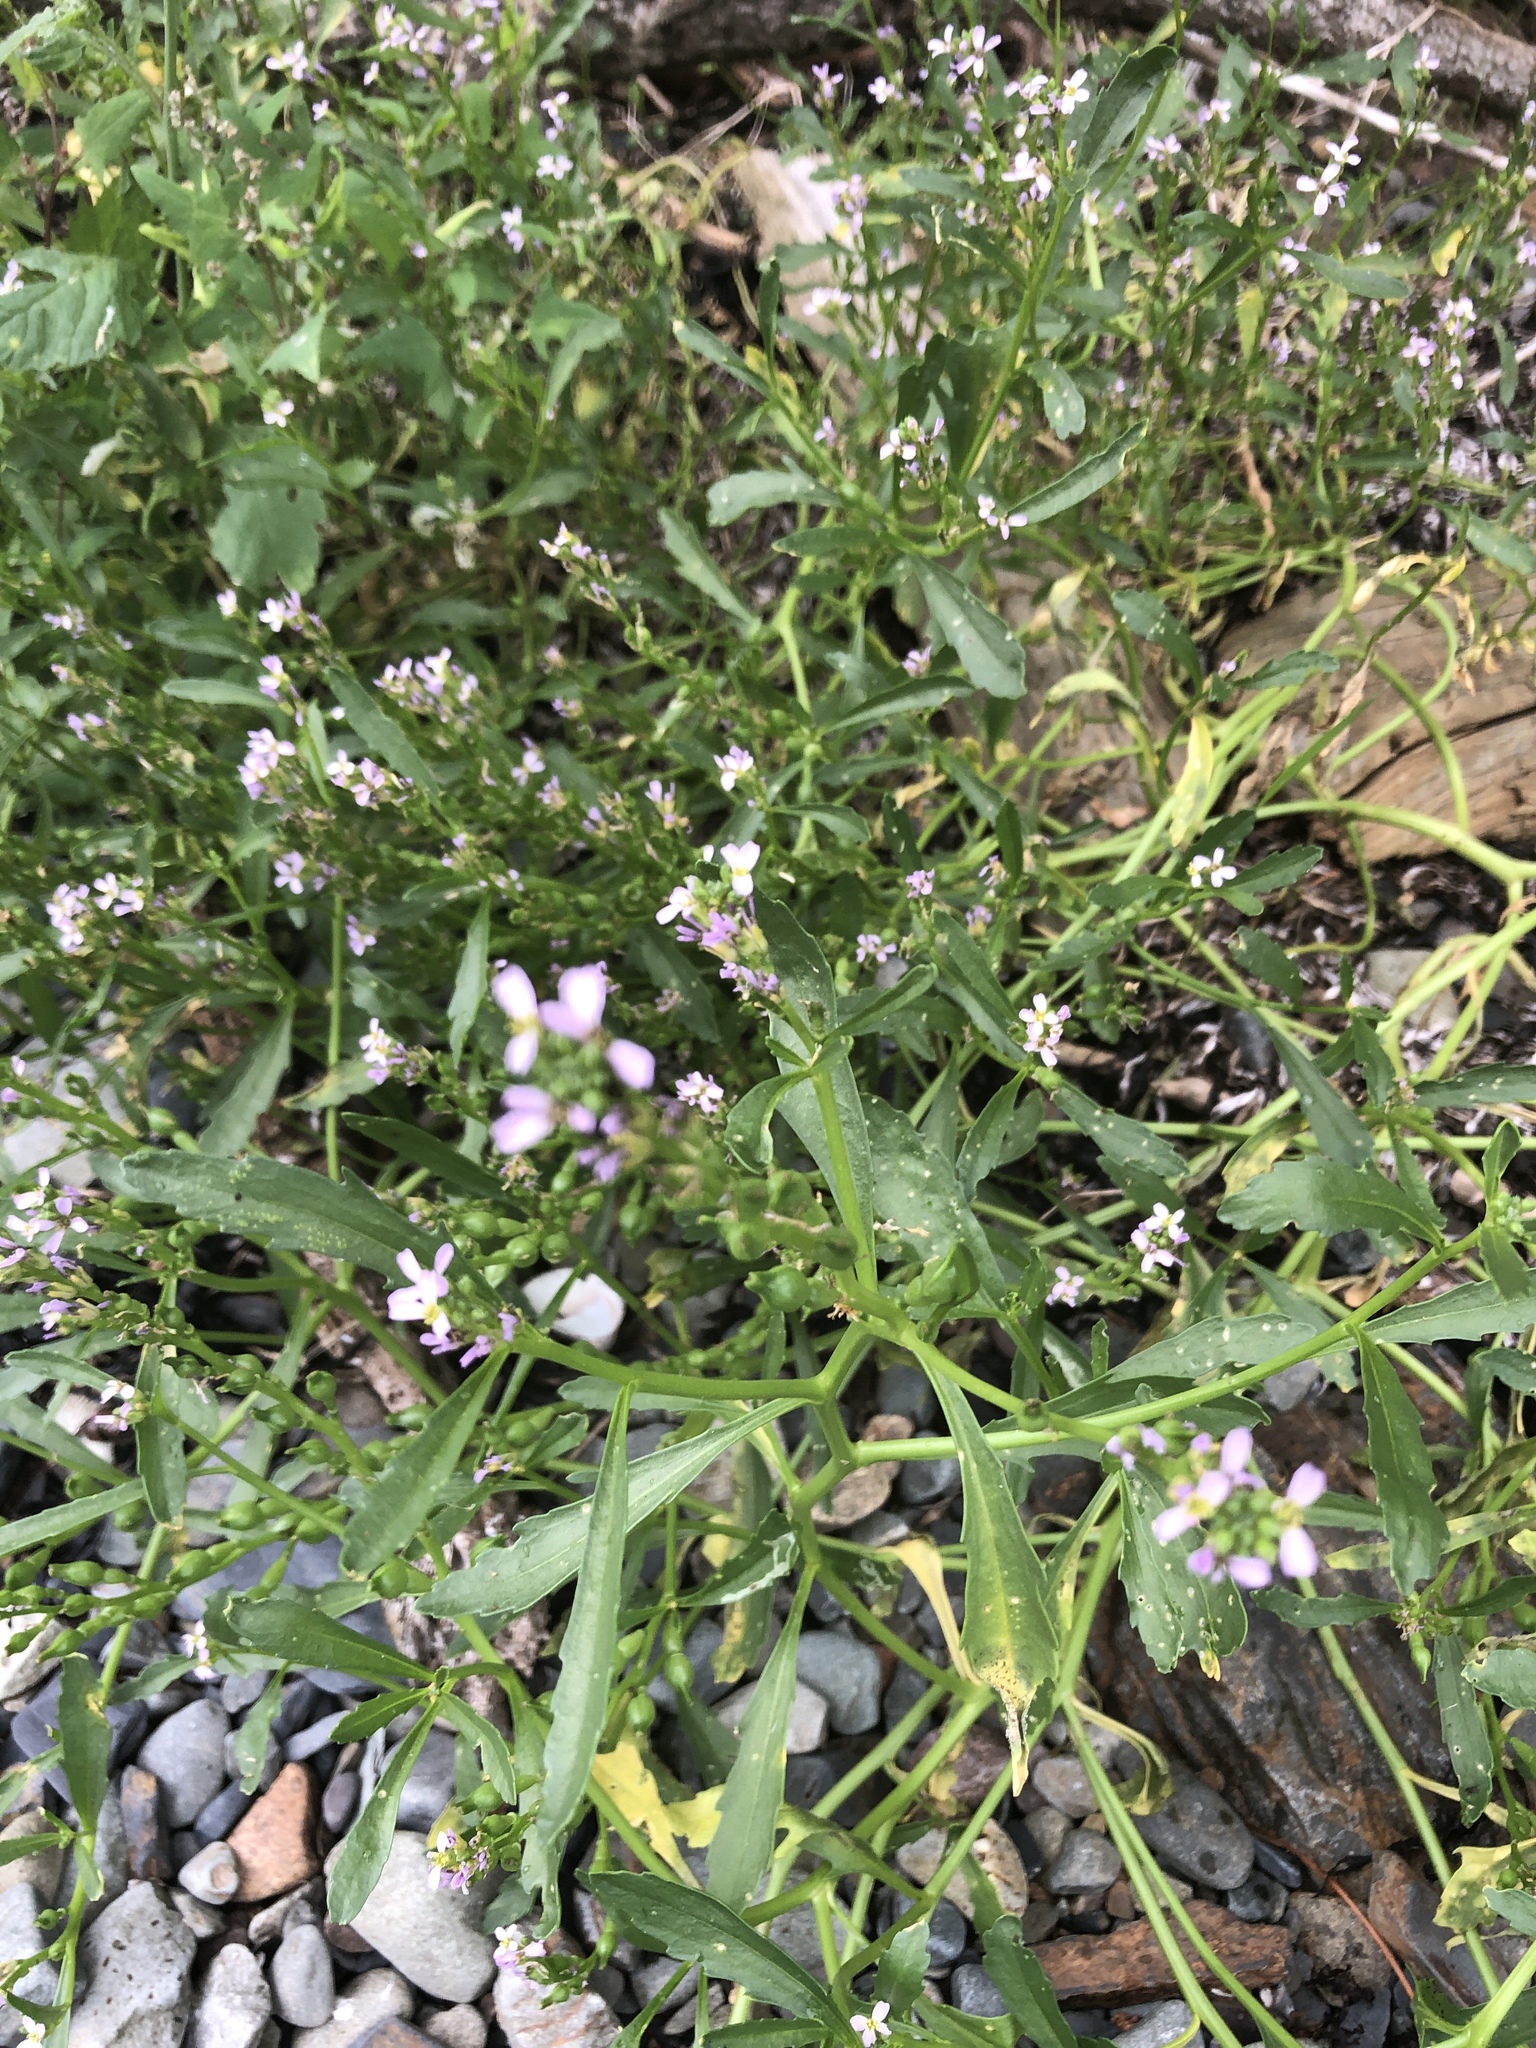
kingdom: Plantae
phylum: Tracheophyta
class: Magnoliopsida
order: Brassicales
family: Brassicaceae
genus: Cakile
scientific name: Cakile edentula
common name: American sea rocket
